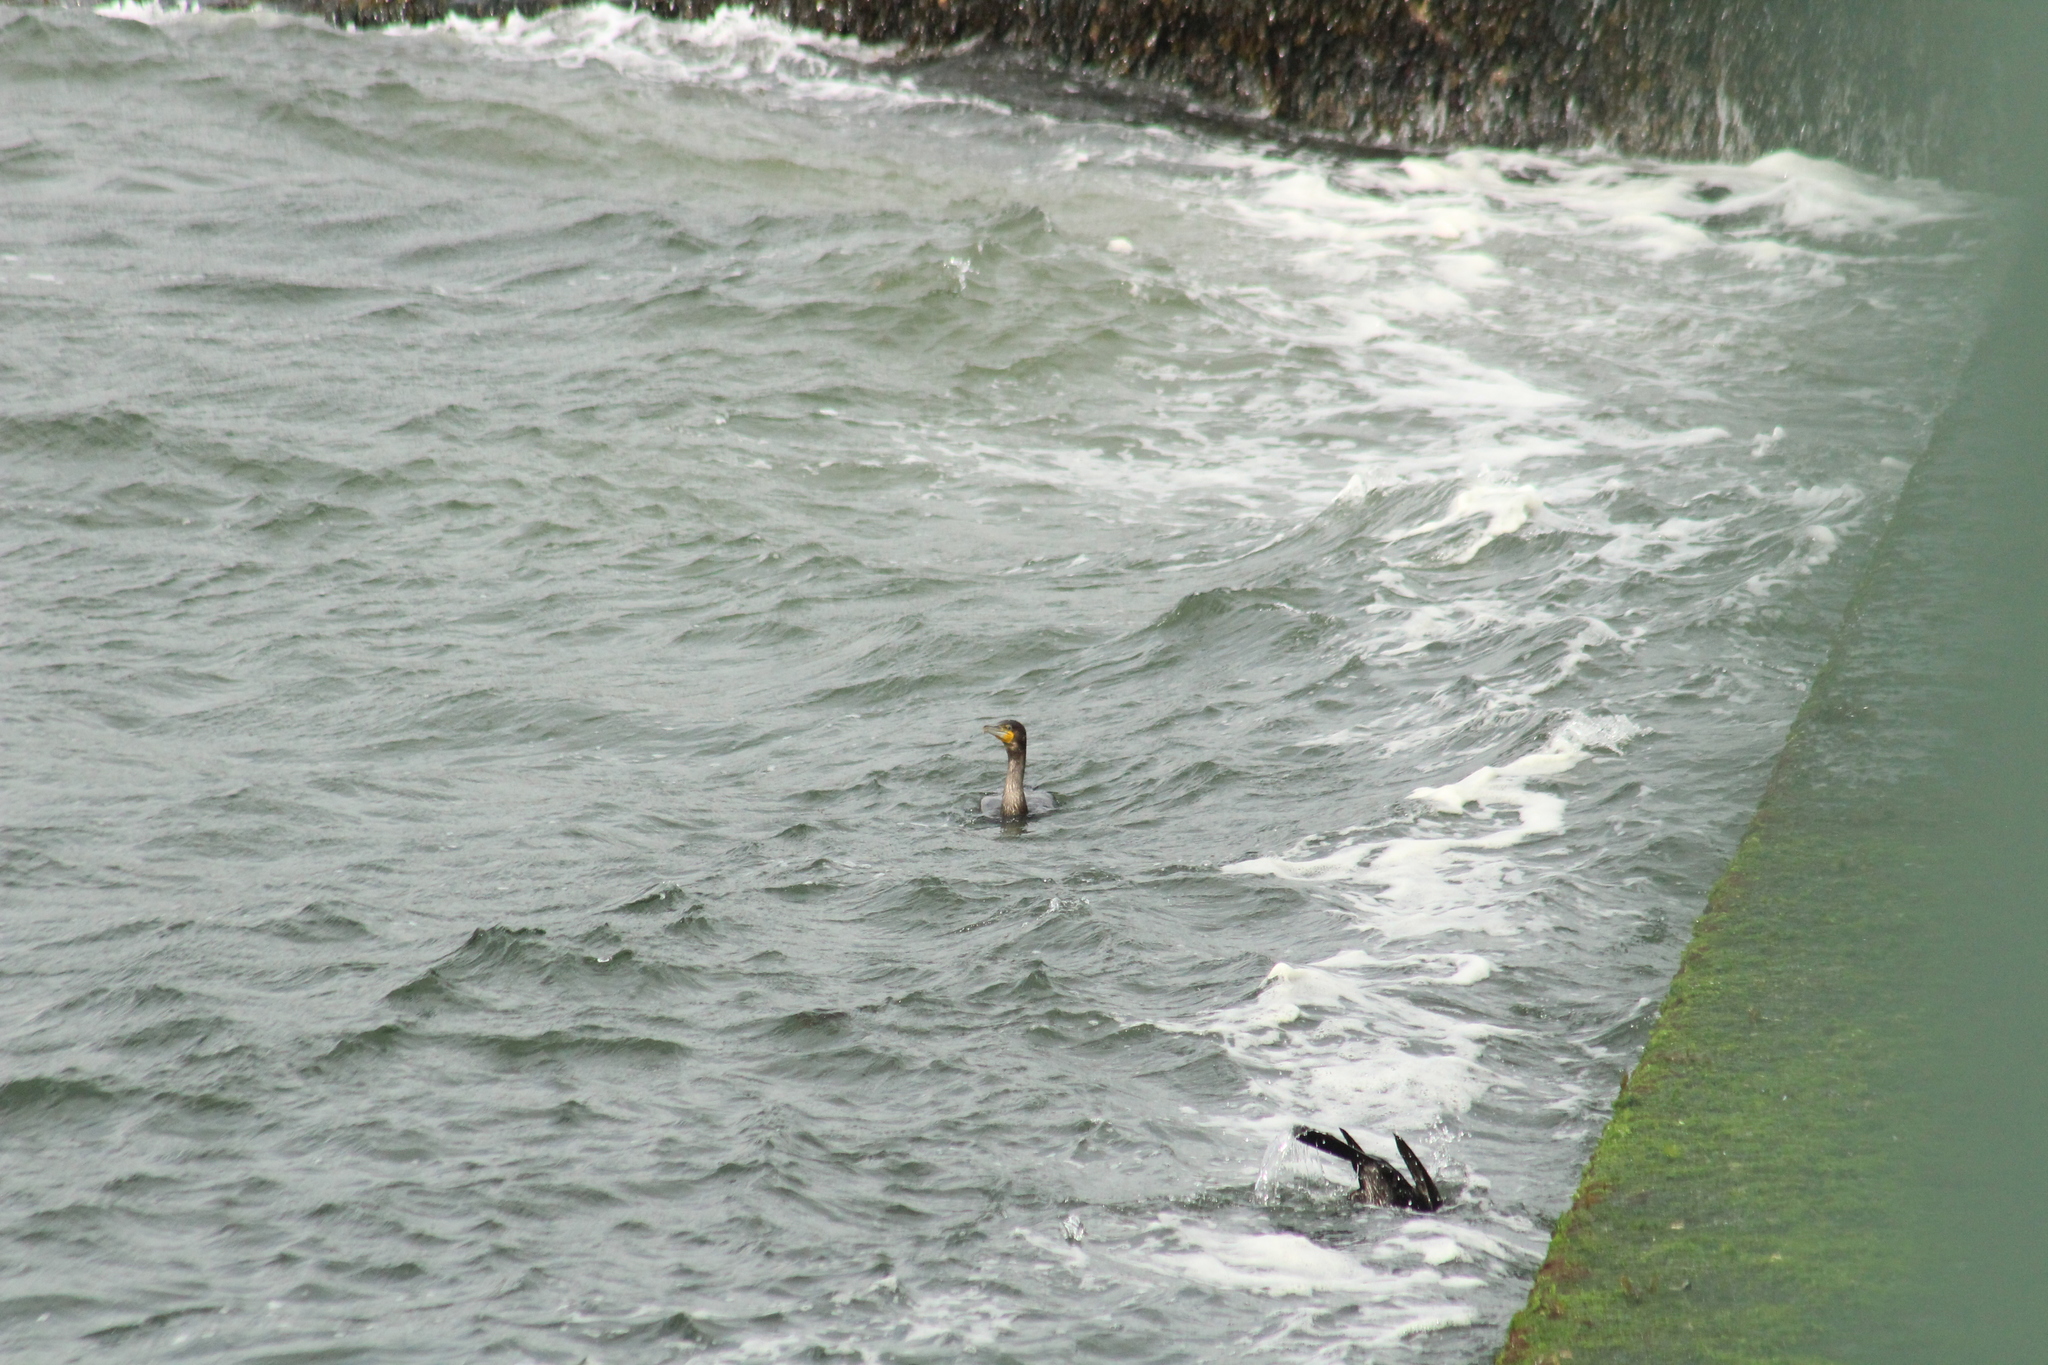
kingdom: Animalia
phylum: Chordata
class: Aves
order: Suliformes
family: Phalacrocoracidae
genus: Phalacrocorax
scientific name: Phalacrocorax carbo
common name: Great cormorant
